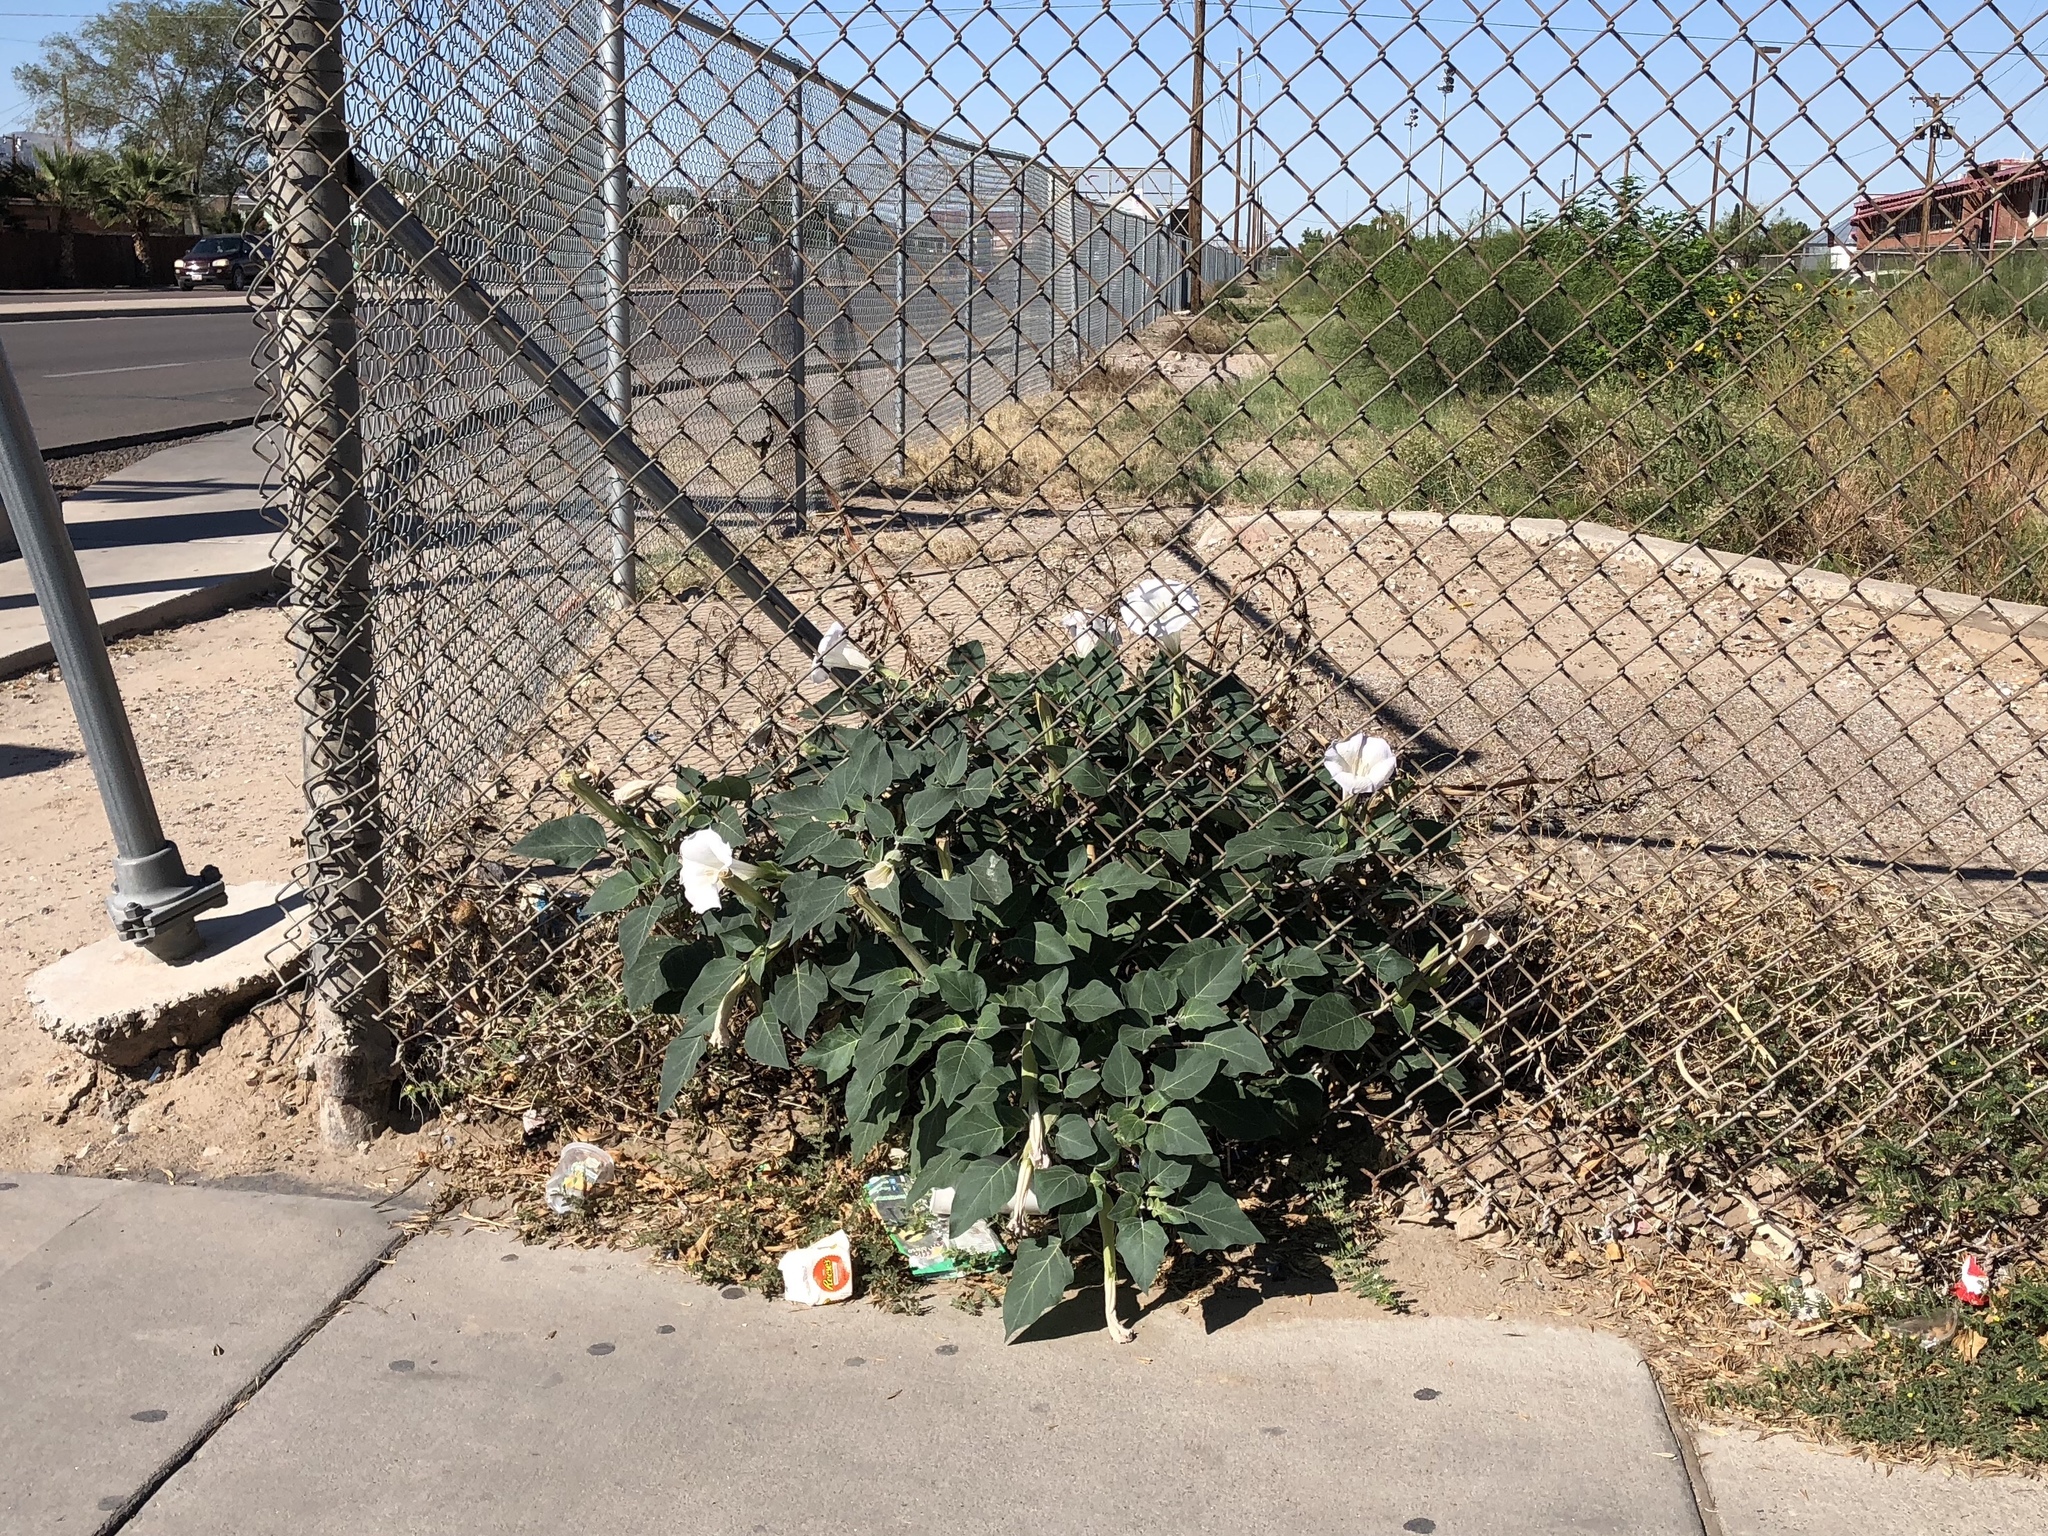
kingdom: Plantae
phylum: Tracheophyta
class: Magnoliopsida
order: Solanales
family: Solanaceae
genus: Datura
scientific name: Datura wrightii
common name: Sacred thorn-apple
